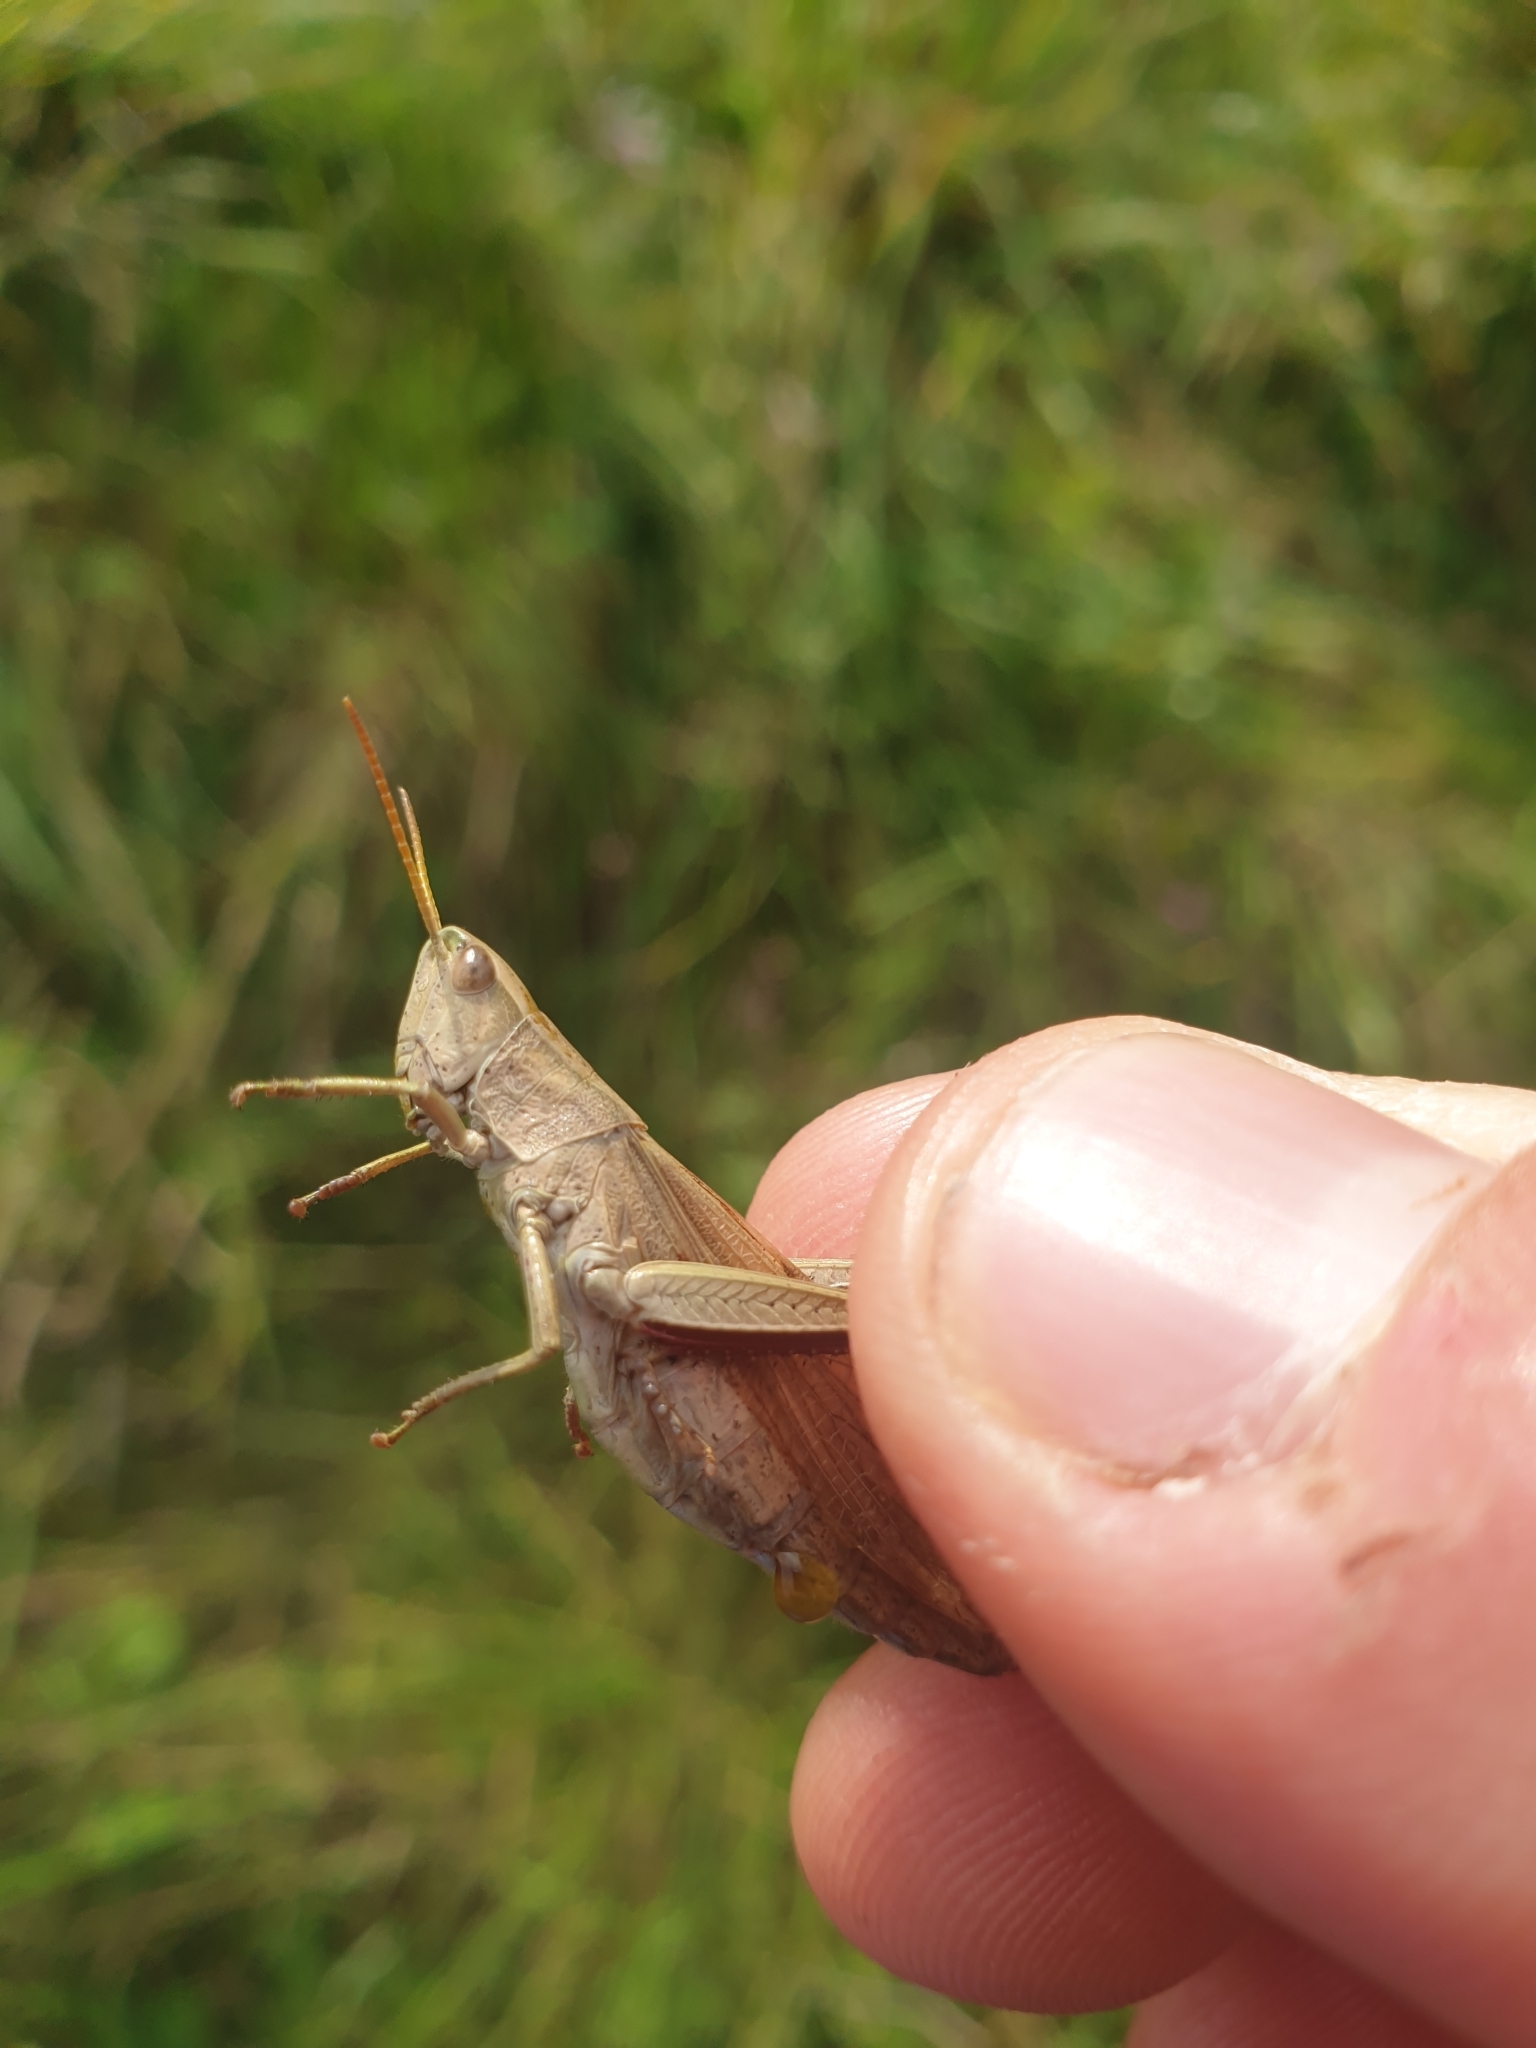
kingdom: Animalia
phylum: Arthropoda
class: Insecta
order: Orthoptera
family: Acrididae
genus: Chrysochraon
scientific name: Chrysochraon dispar
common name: Large gold grasshopper
